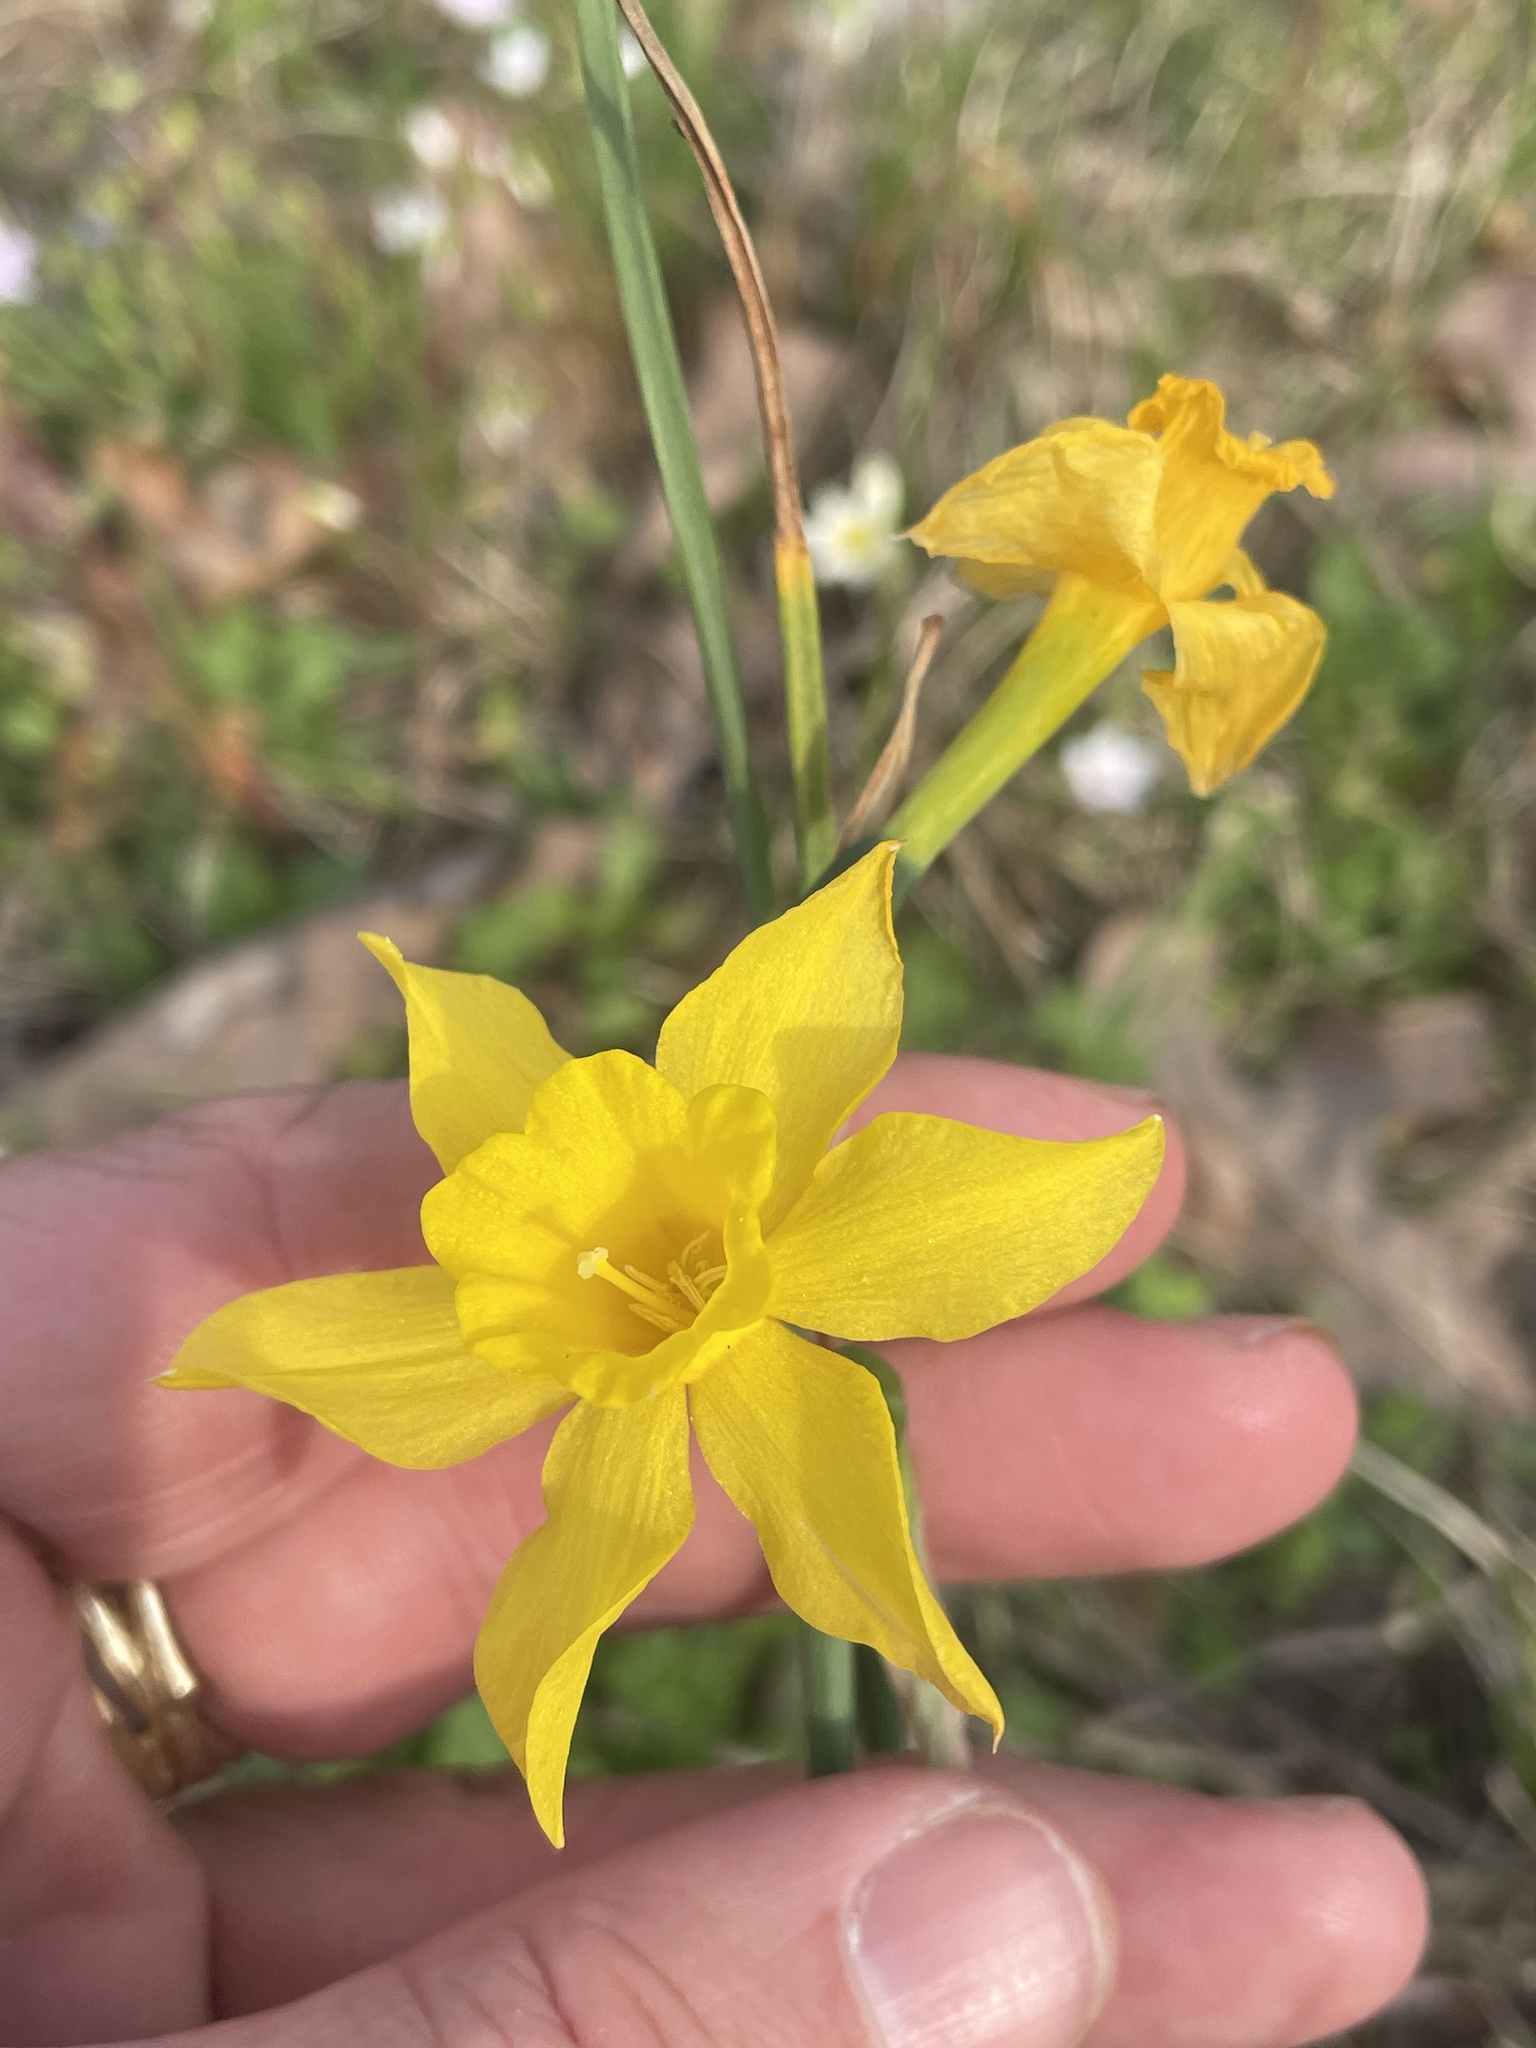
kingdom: Plantae
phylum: Tracheophyta
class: Liliopsida
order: Asparagales
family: Amaryllidaceae
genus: Narcissus
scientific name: Narcissus jonquilla
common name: Jonquil
